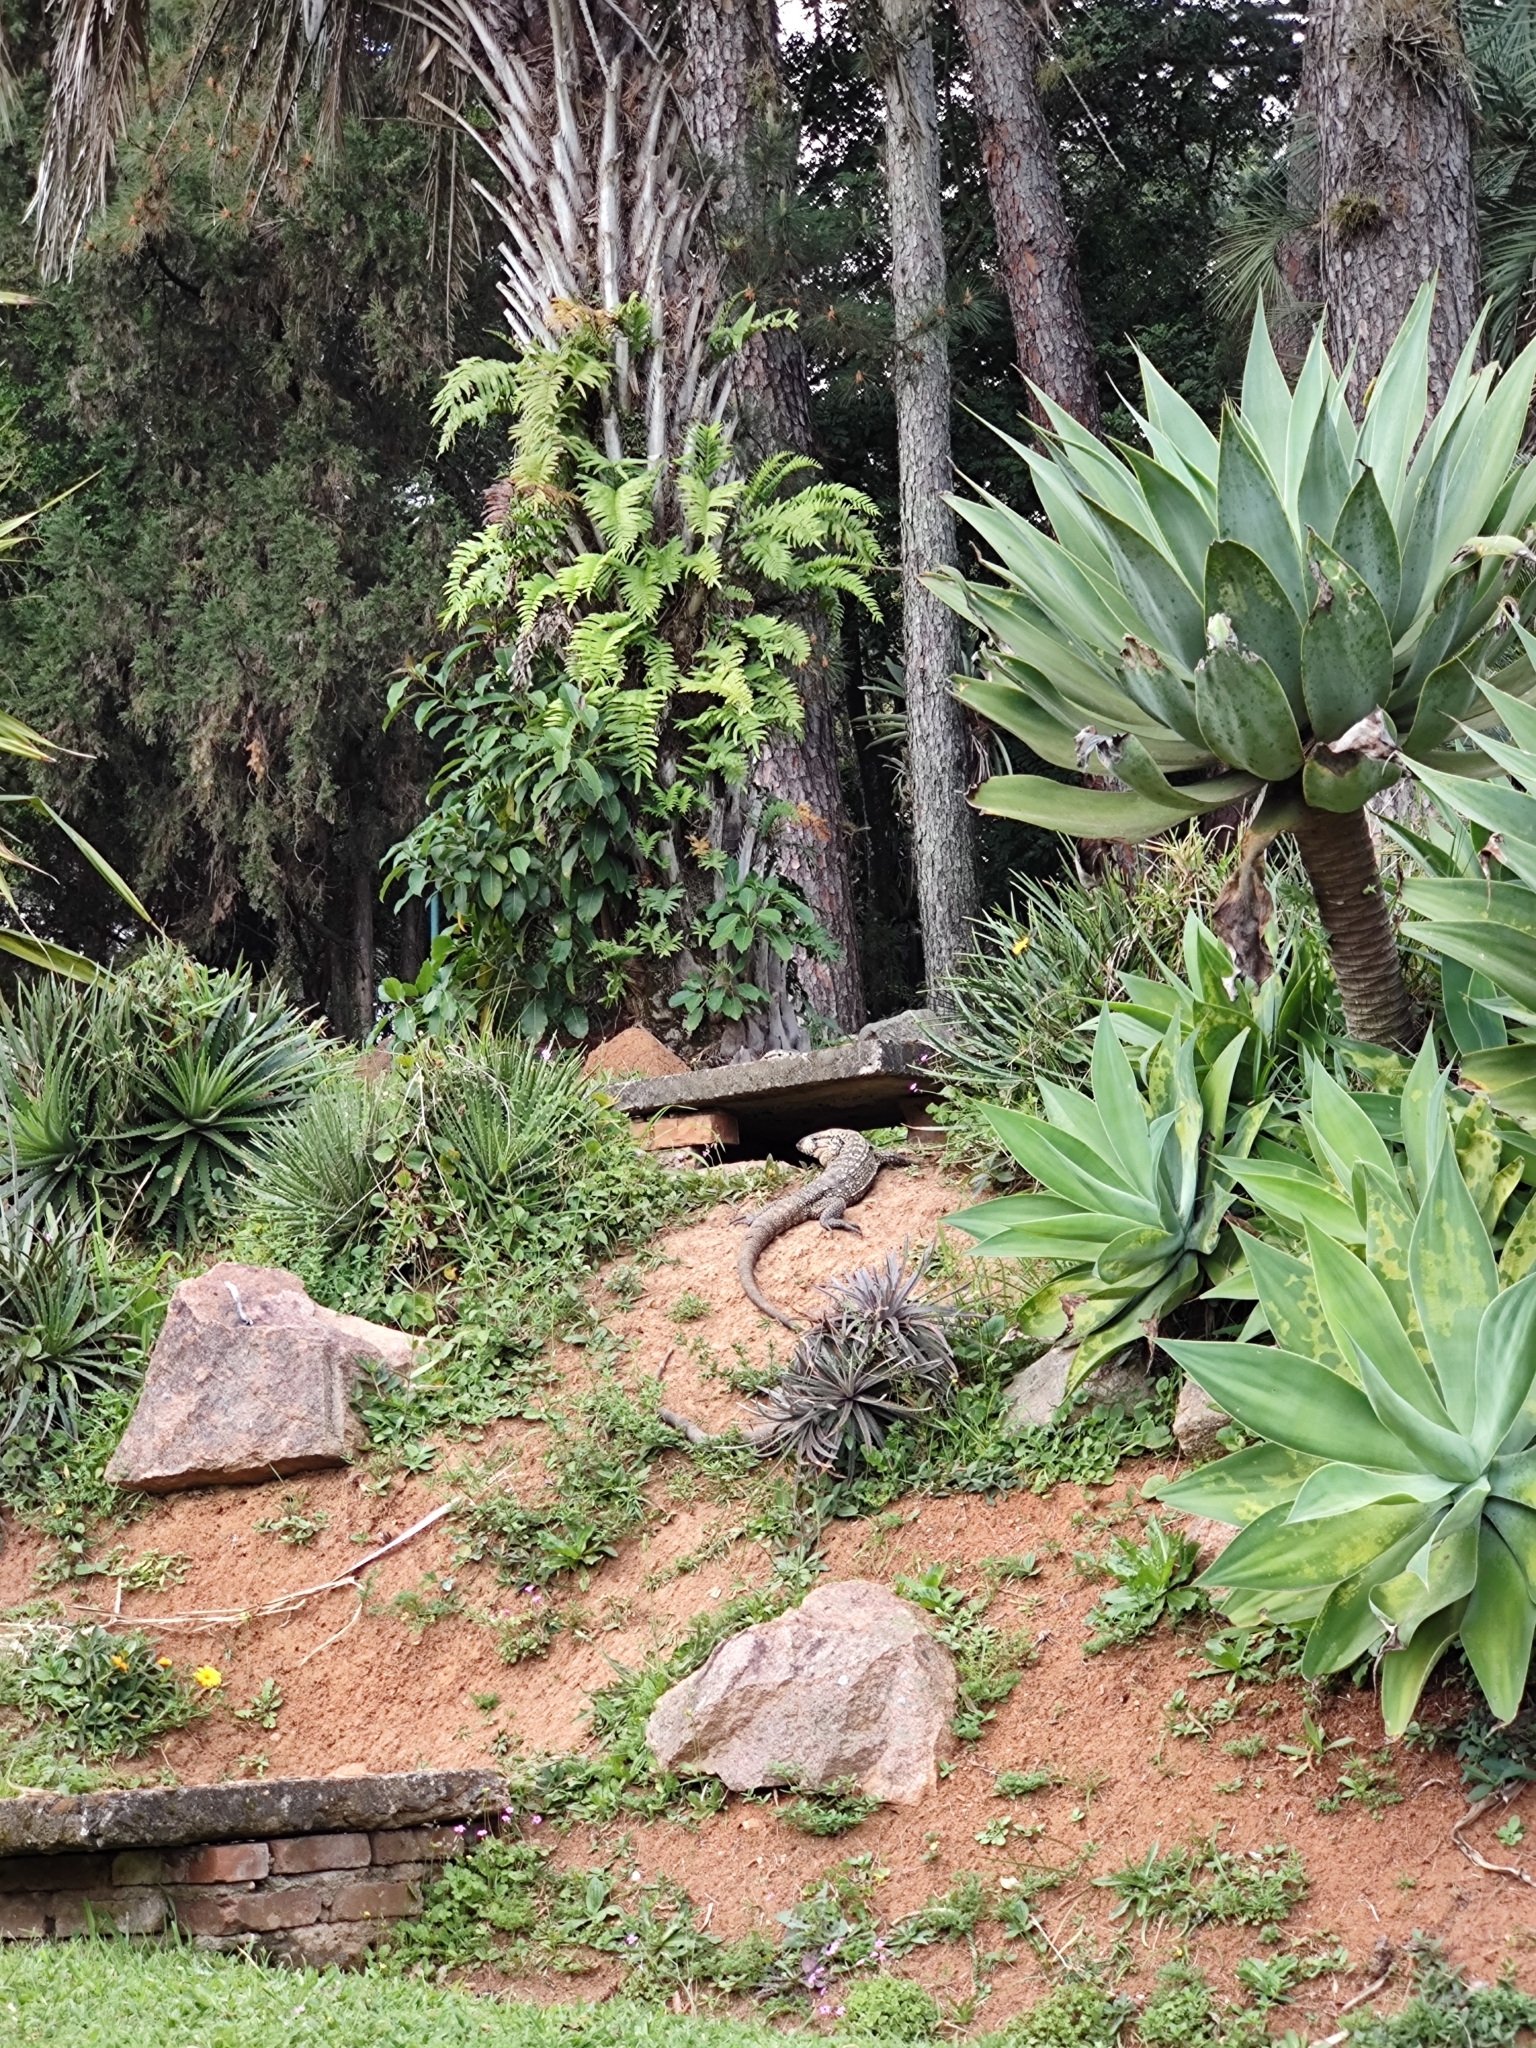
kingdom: Animalia
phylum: Chordata
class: Squamata
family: Teiidae
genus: Salvator
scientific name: Salvator merianae
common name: Argentine black and white tegu
